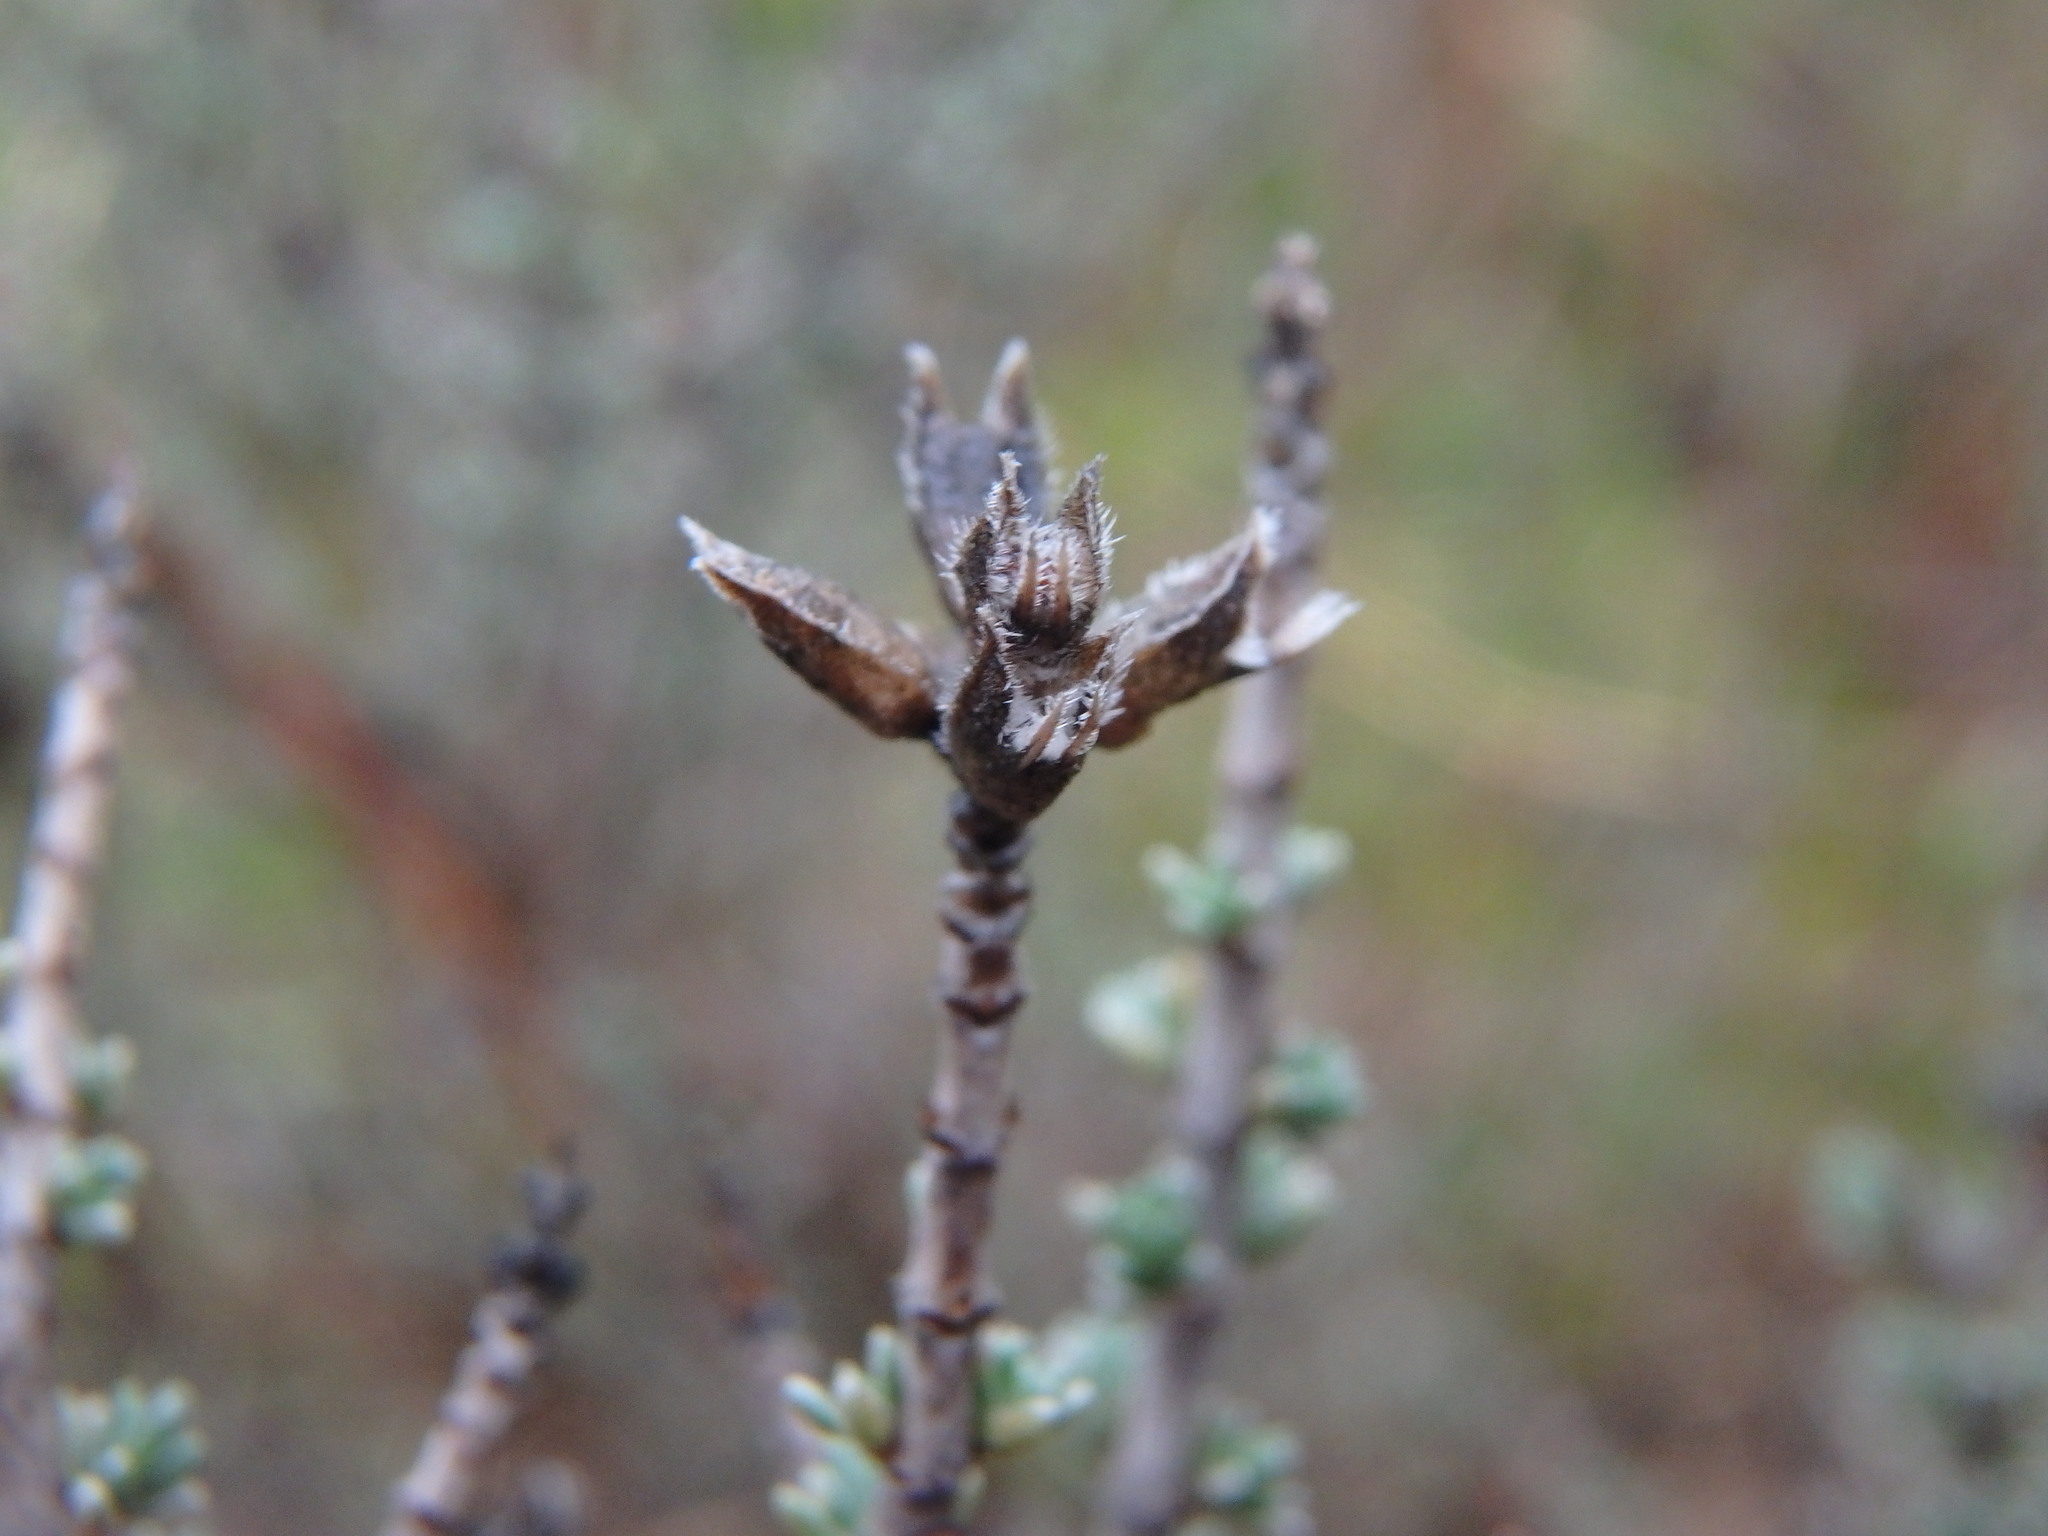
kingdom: Plantae
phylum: Tracheophyta
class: Magnoliopsida
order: Lamiales
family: Lamiaceae
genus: Thymbra
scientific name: Thymbra capitata
